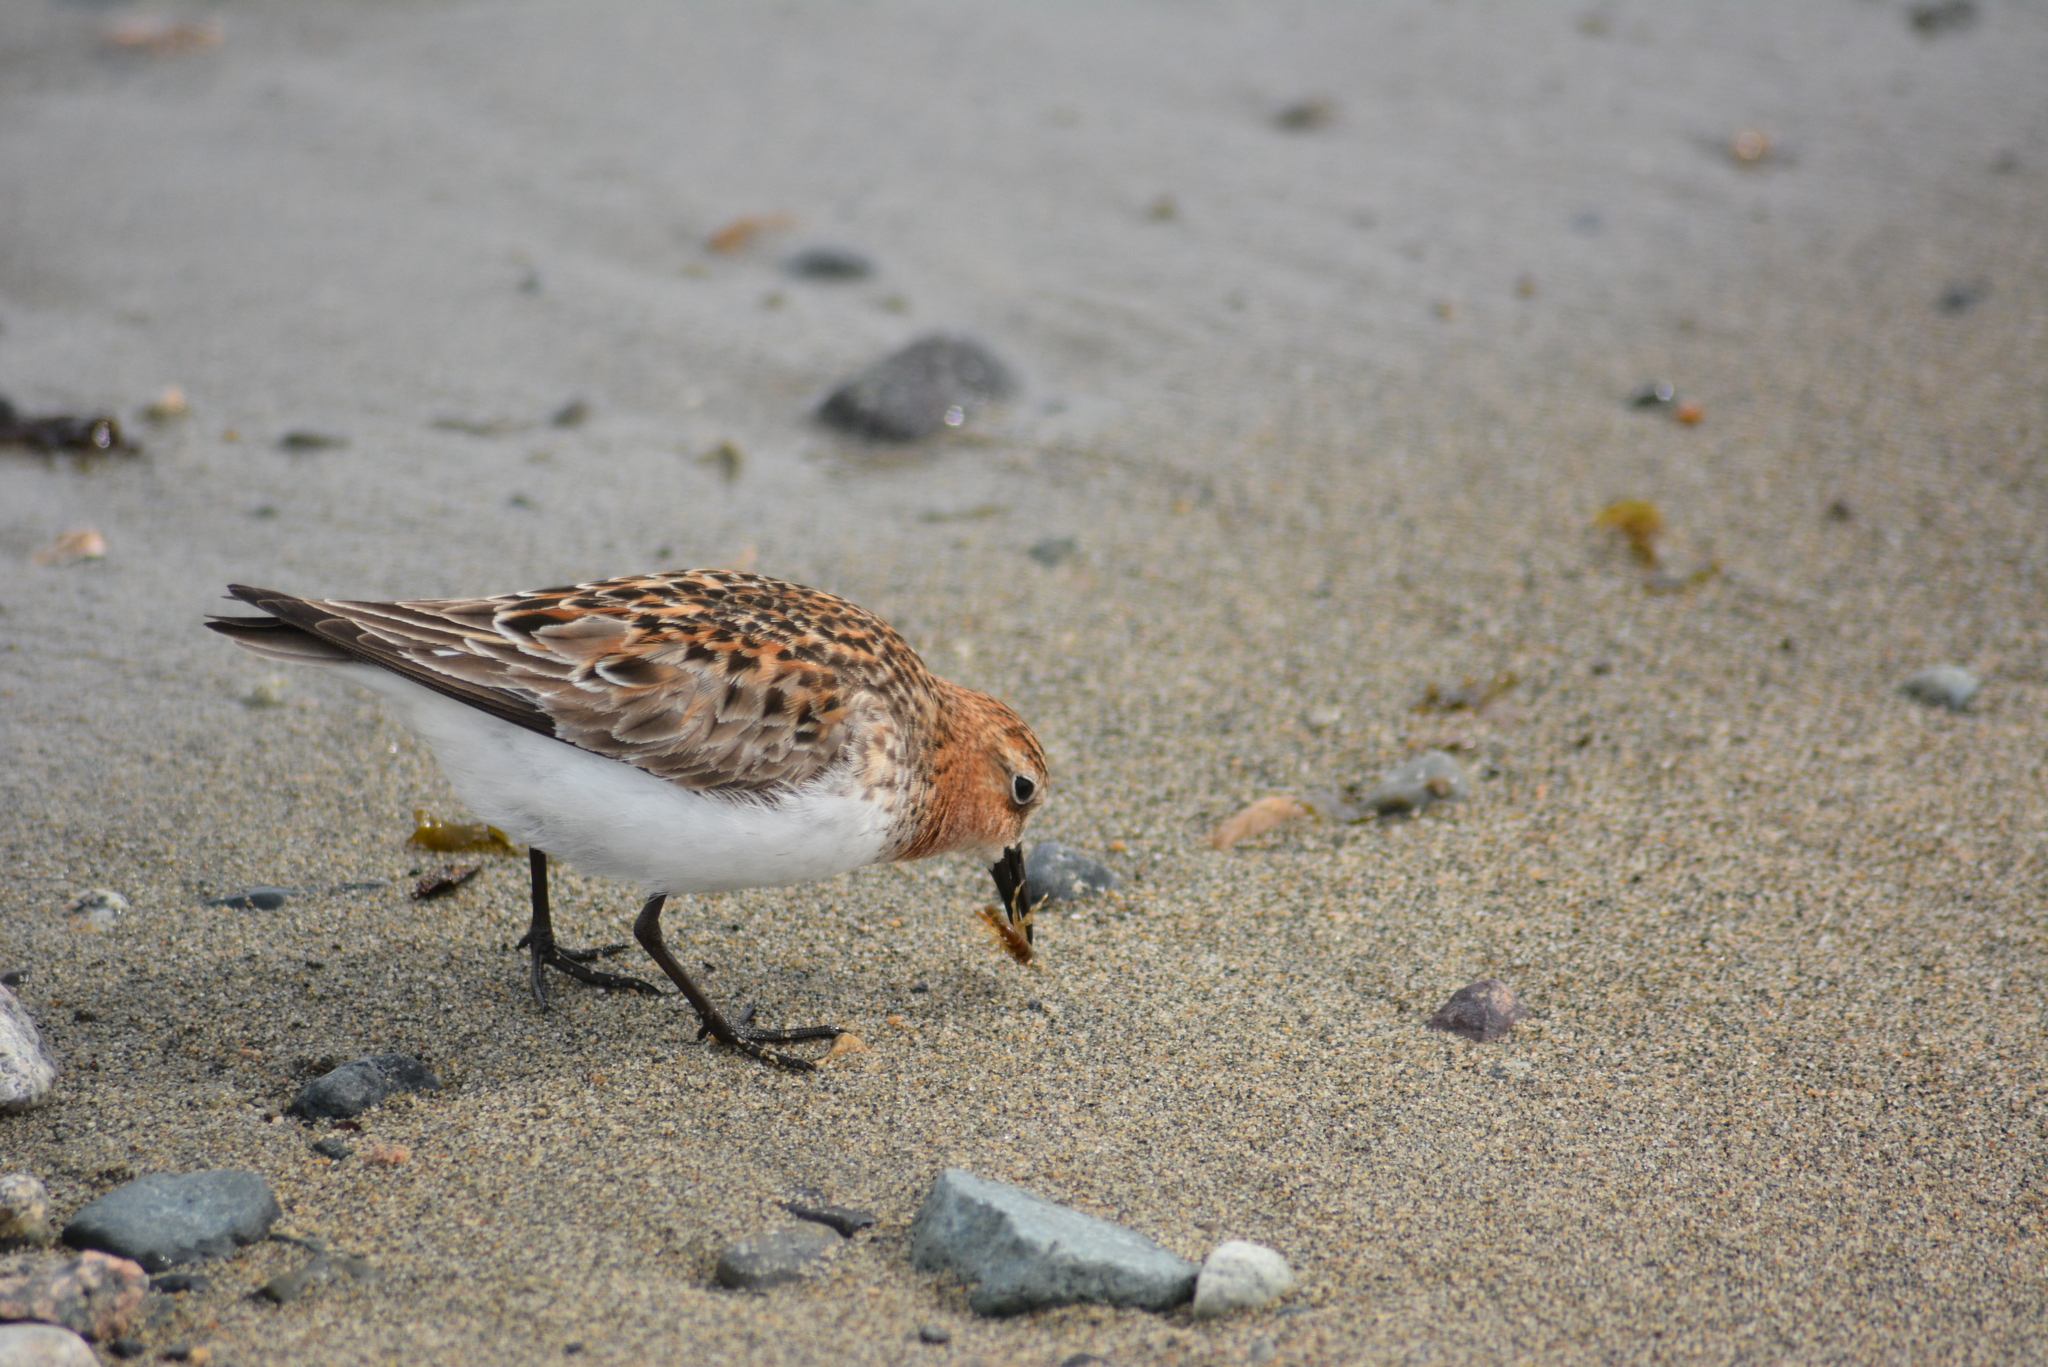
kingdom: Animalia
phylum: Chordata
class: Aves
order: Charadriiformes
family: Scolopacidae
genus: Calidris
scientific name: Calidris ruficollis
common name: Red-necked stint
